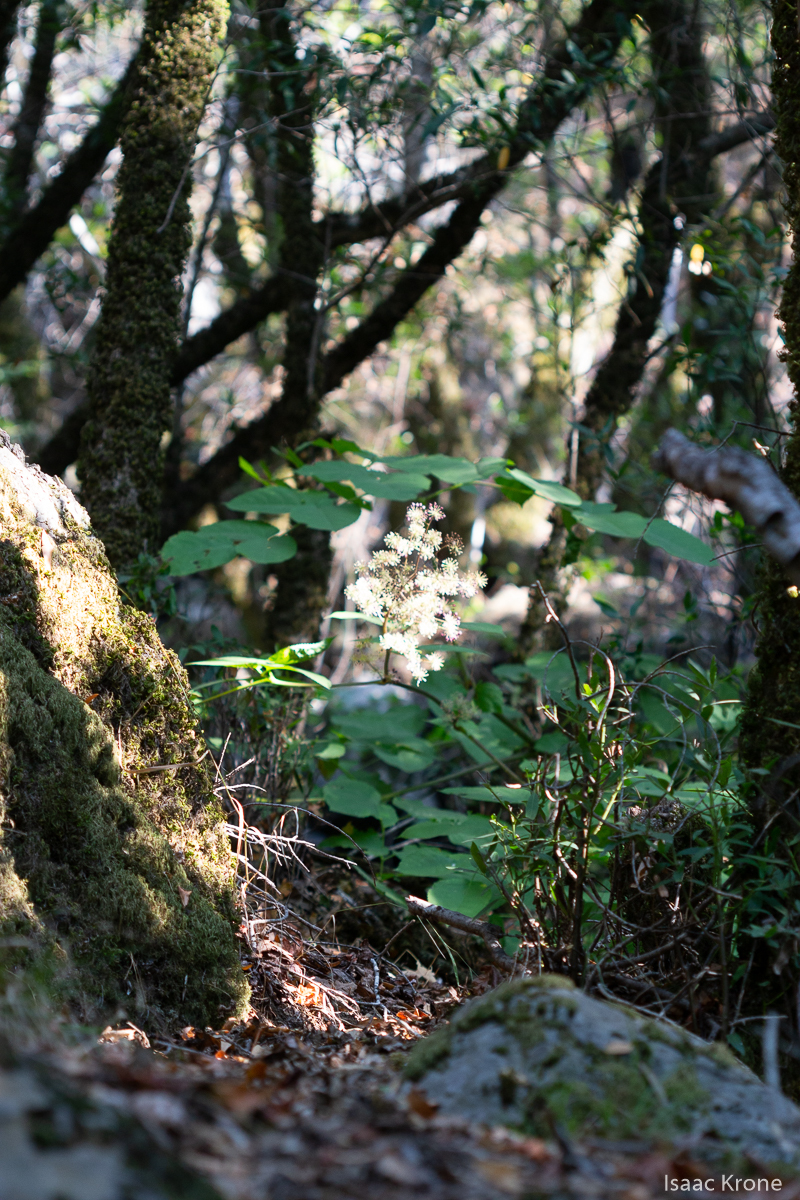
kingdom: Plantae
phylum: Tracheophyta
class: Magnoliopsida
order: Apiales
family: Araliaceae
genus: Aralia
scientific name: Aralia californica
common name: California-ginseng
